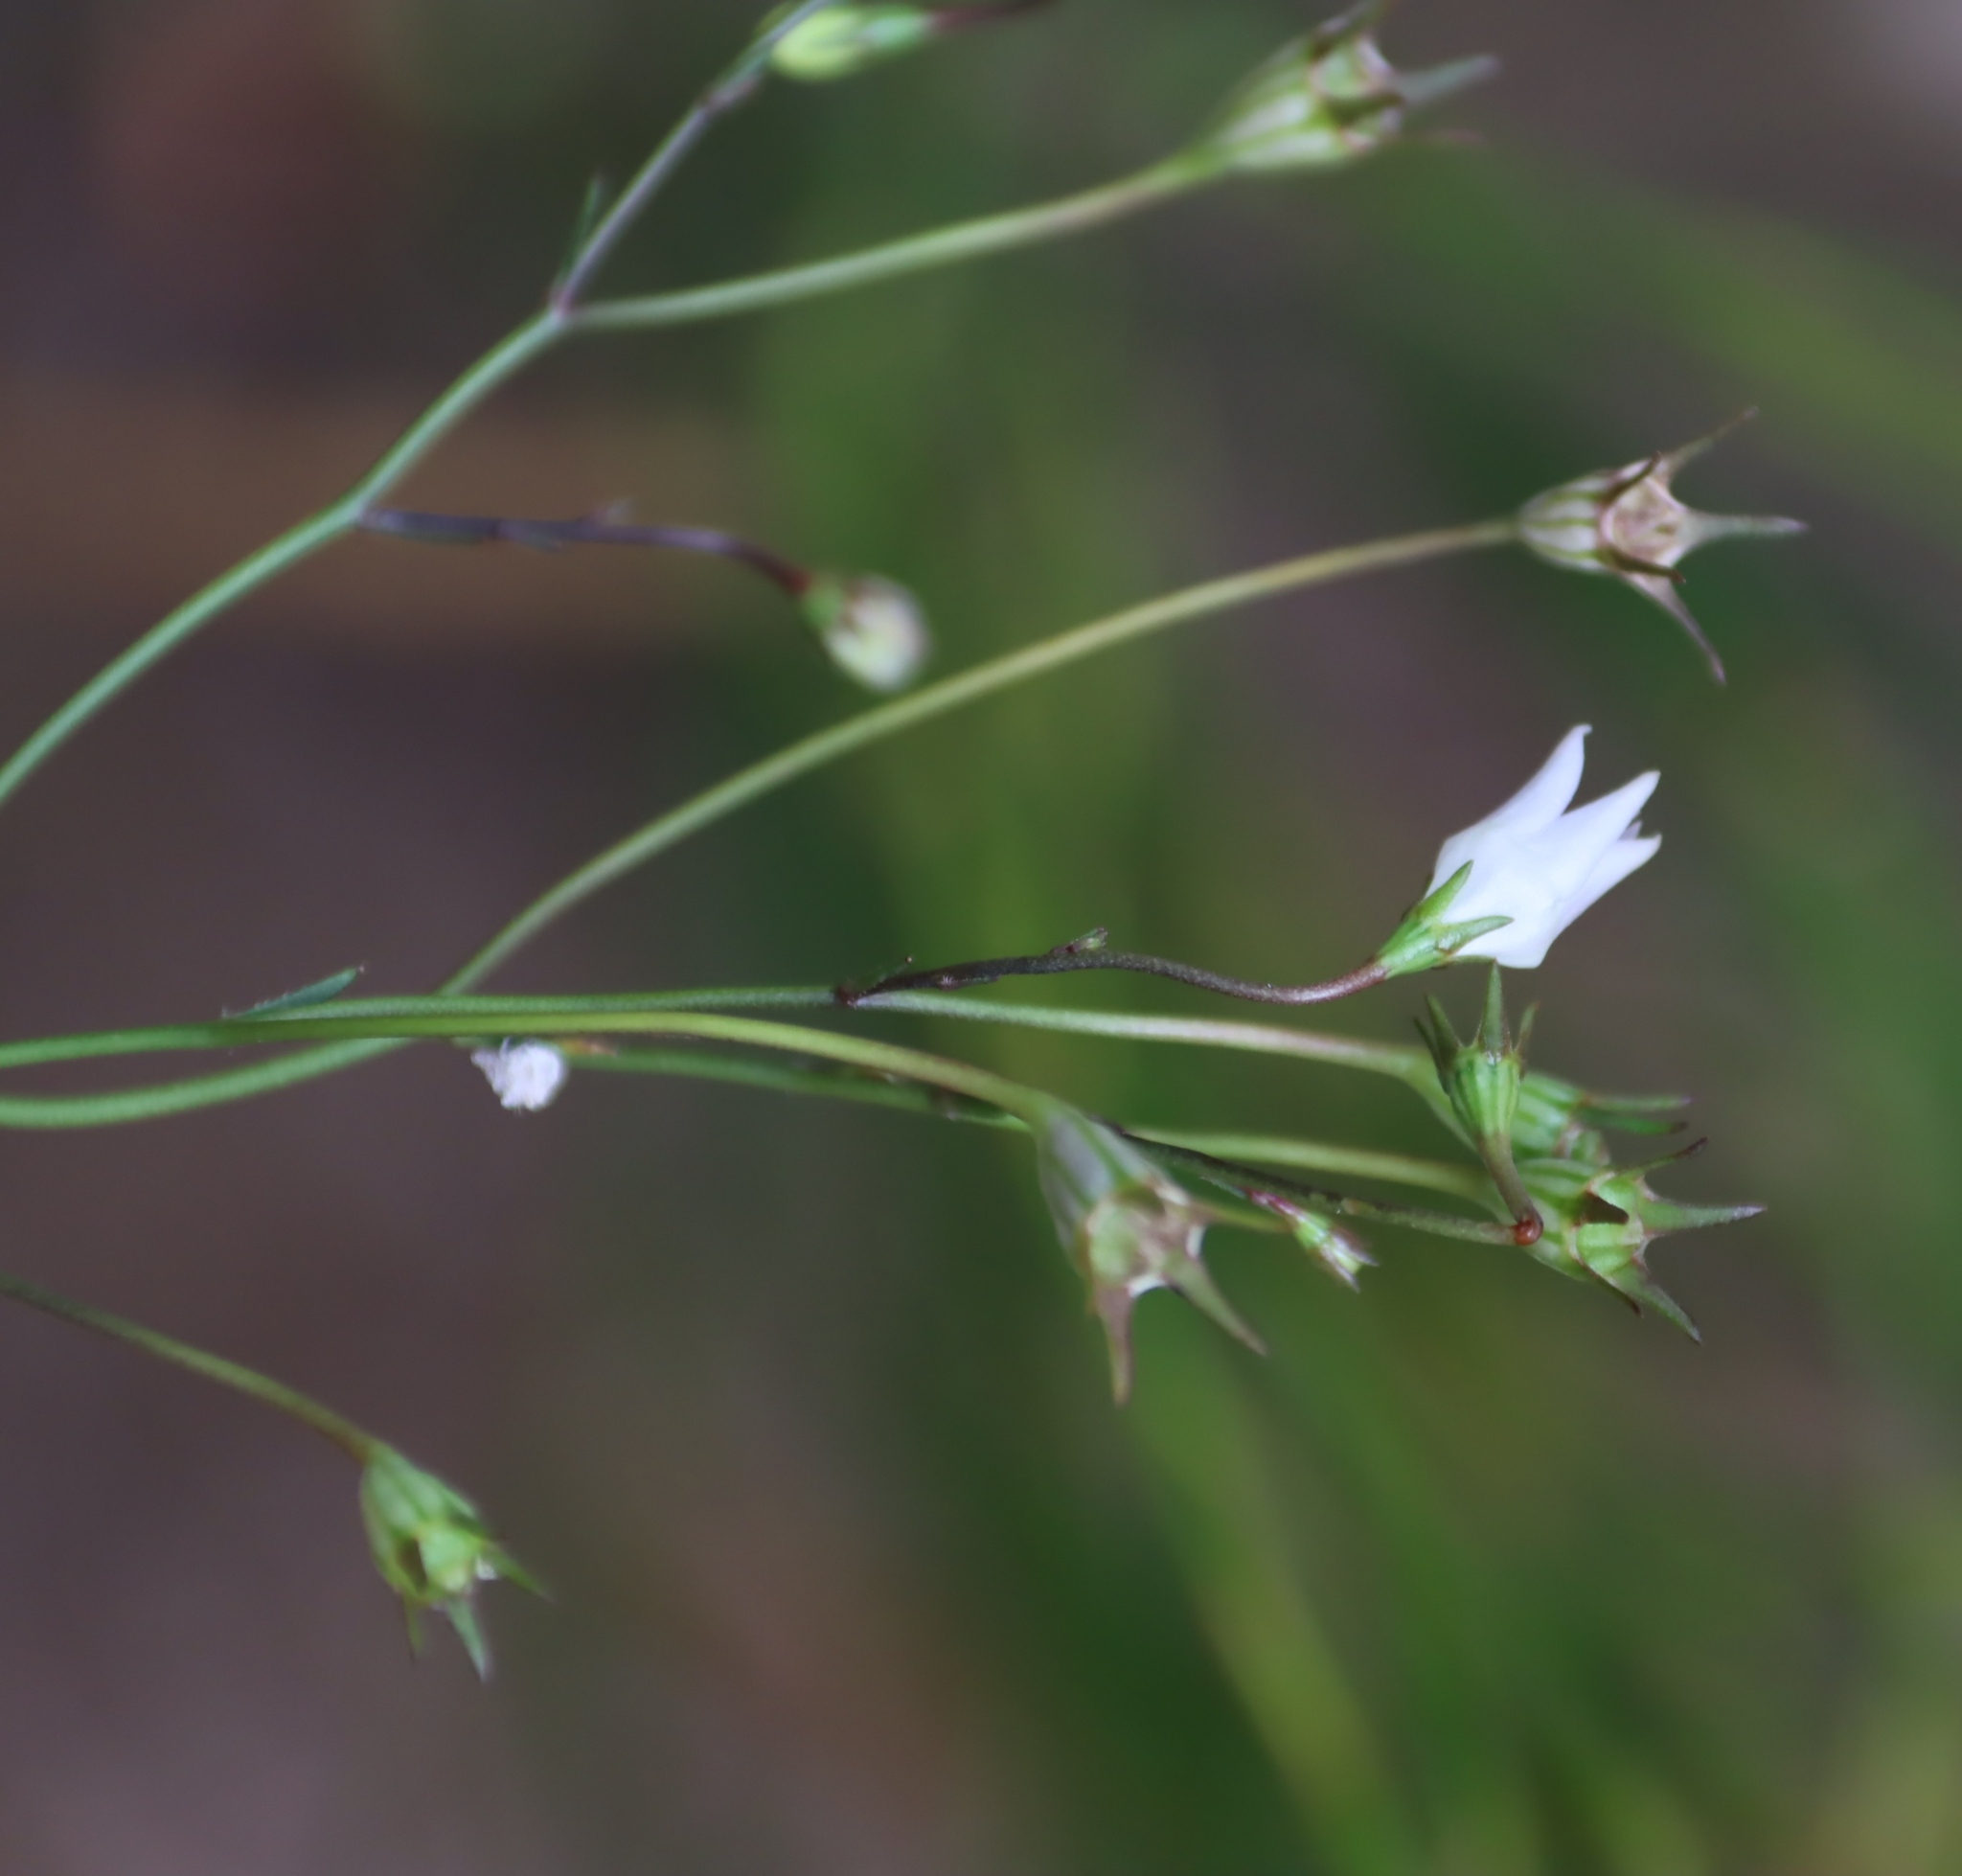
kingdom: Plantae
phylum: Tracheophyta
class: Magnoliopsida
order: Asterales
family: Campanulaceae
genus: Wahlenbergia
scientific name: Wahlenbergia obovata
